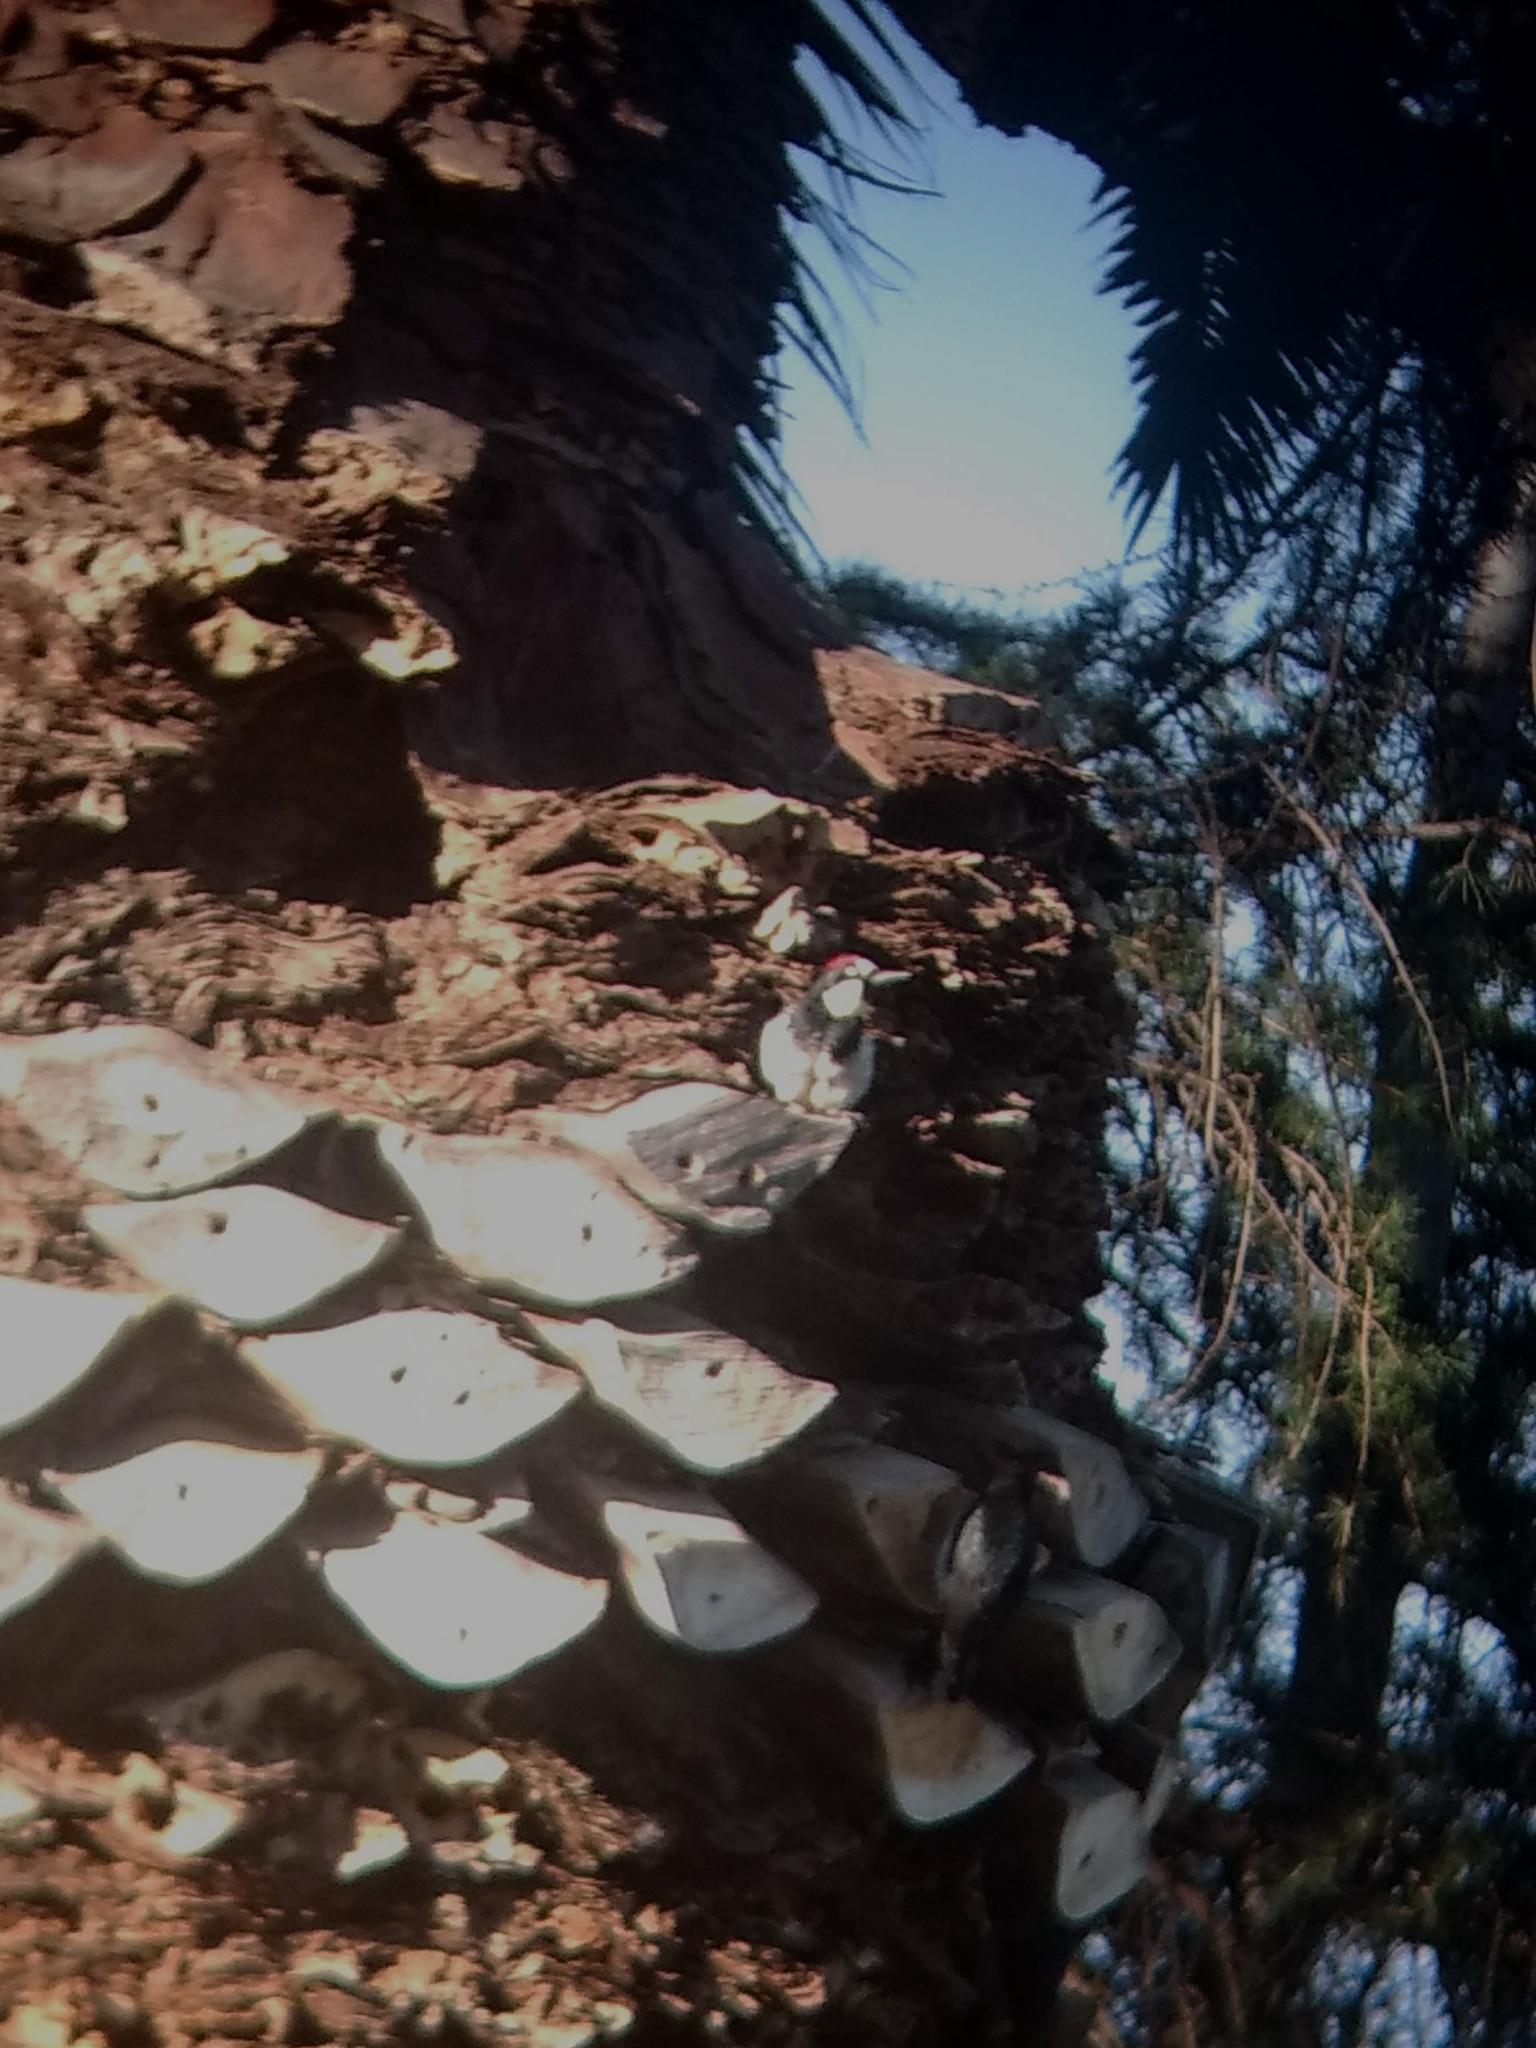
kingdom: Animalia
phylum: Chordata
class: Aves
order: Piciformes
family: Picidae
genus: Melanerpes
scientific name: Melanerpes formicivorus
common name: Acorn woodpecker
